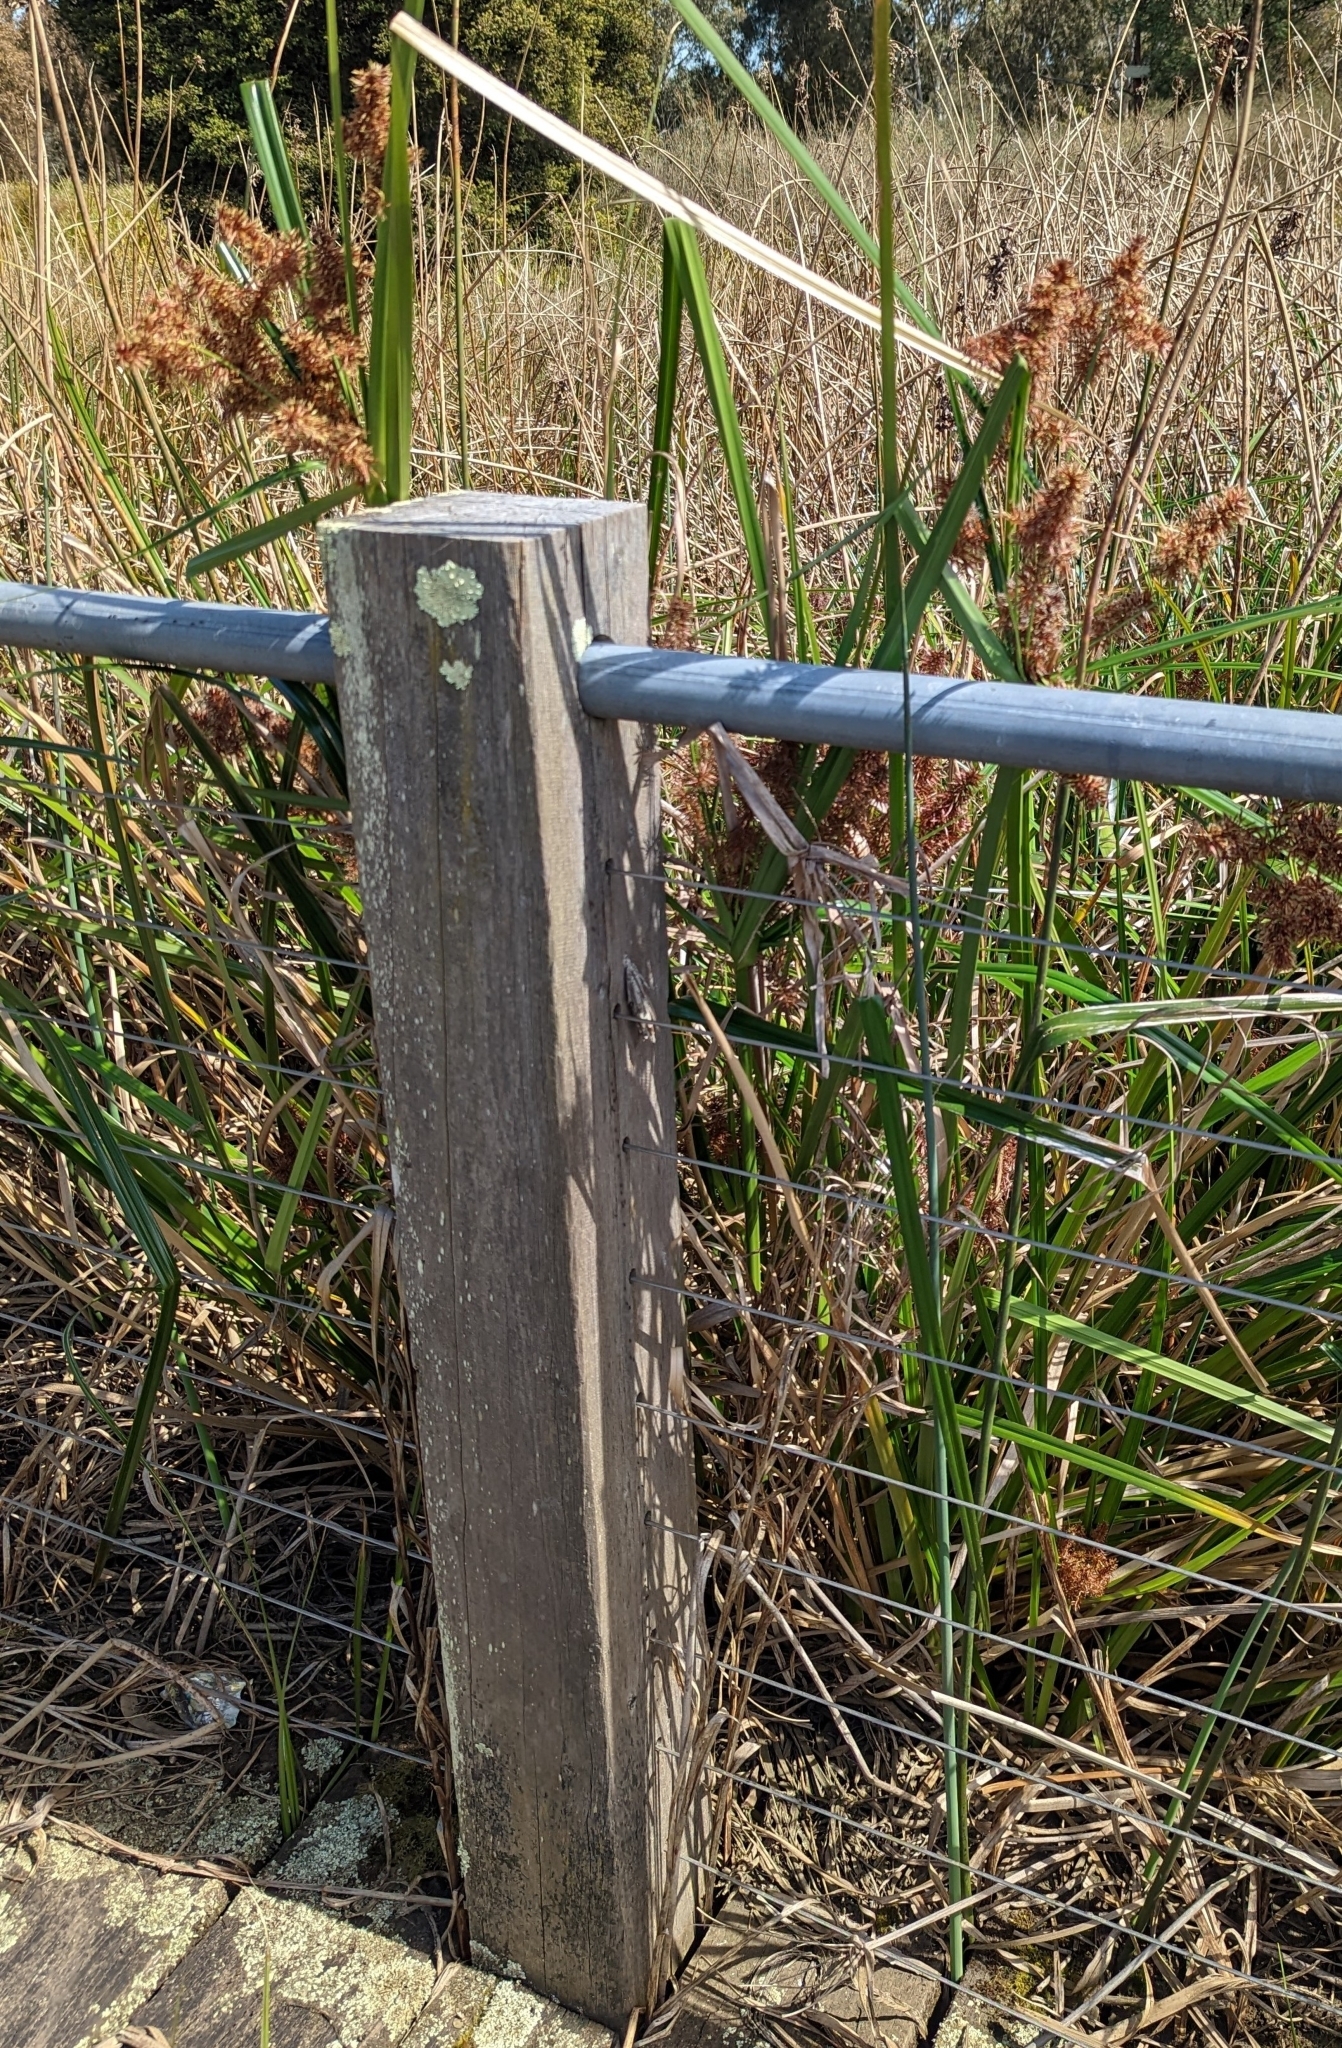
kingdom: Plantae
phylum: Tracheophyta
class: Liliopsida
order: Poales
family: Cyperaceae
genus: Cyperus
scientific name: Cyperus lucidus
